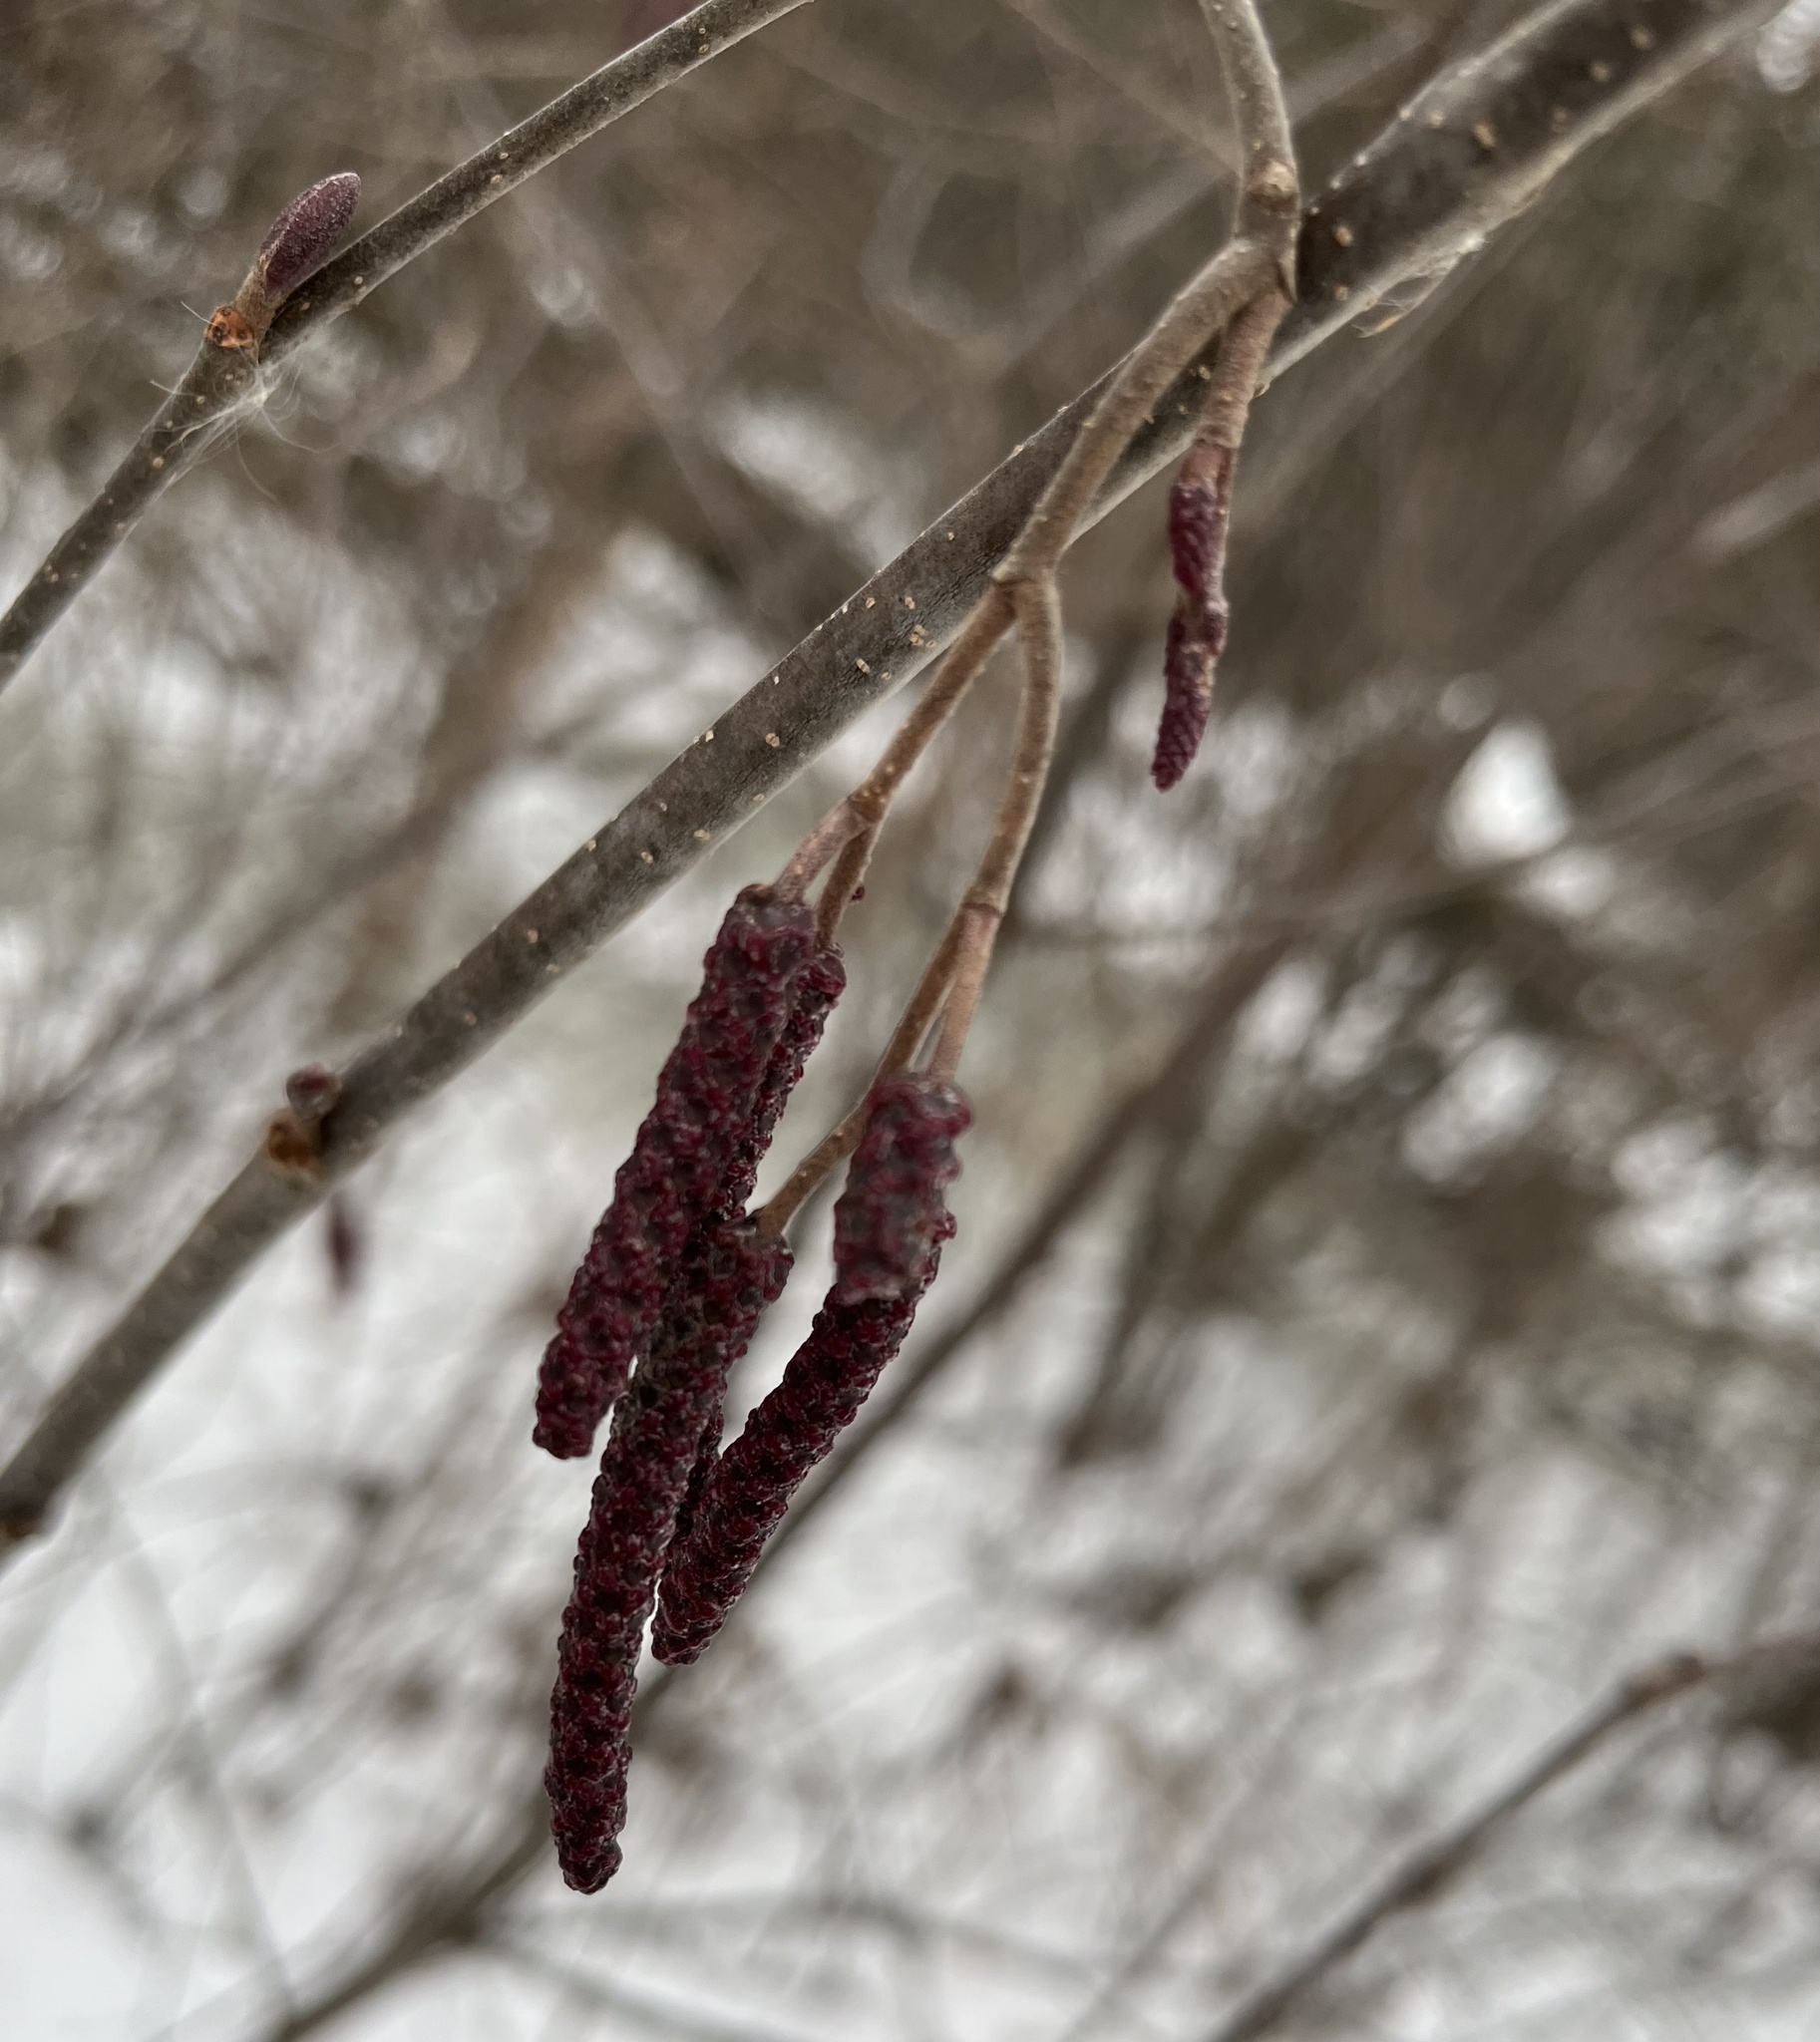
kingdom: Plantae
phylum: Tracheophyta
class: Magnoliopsida
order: Fagales
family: Betulaceae
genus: Alnus
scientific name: Alnus incana
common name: Grey alder
